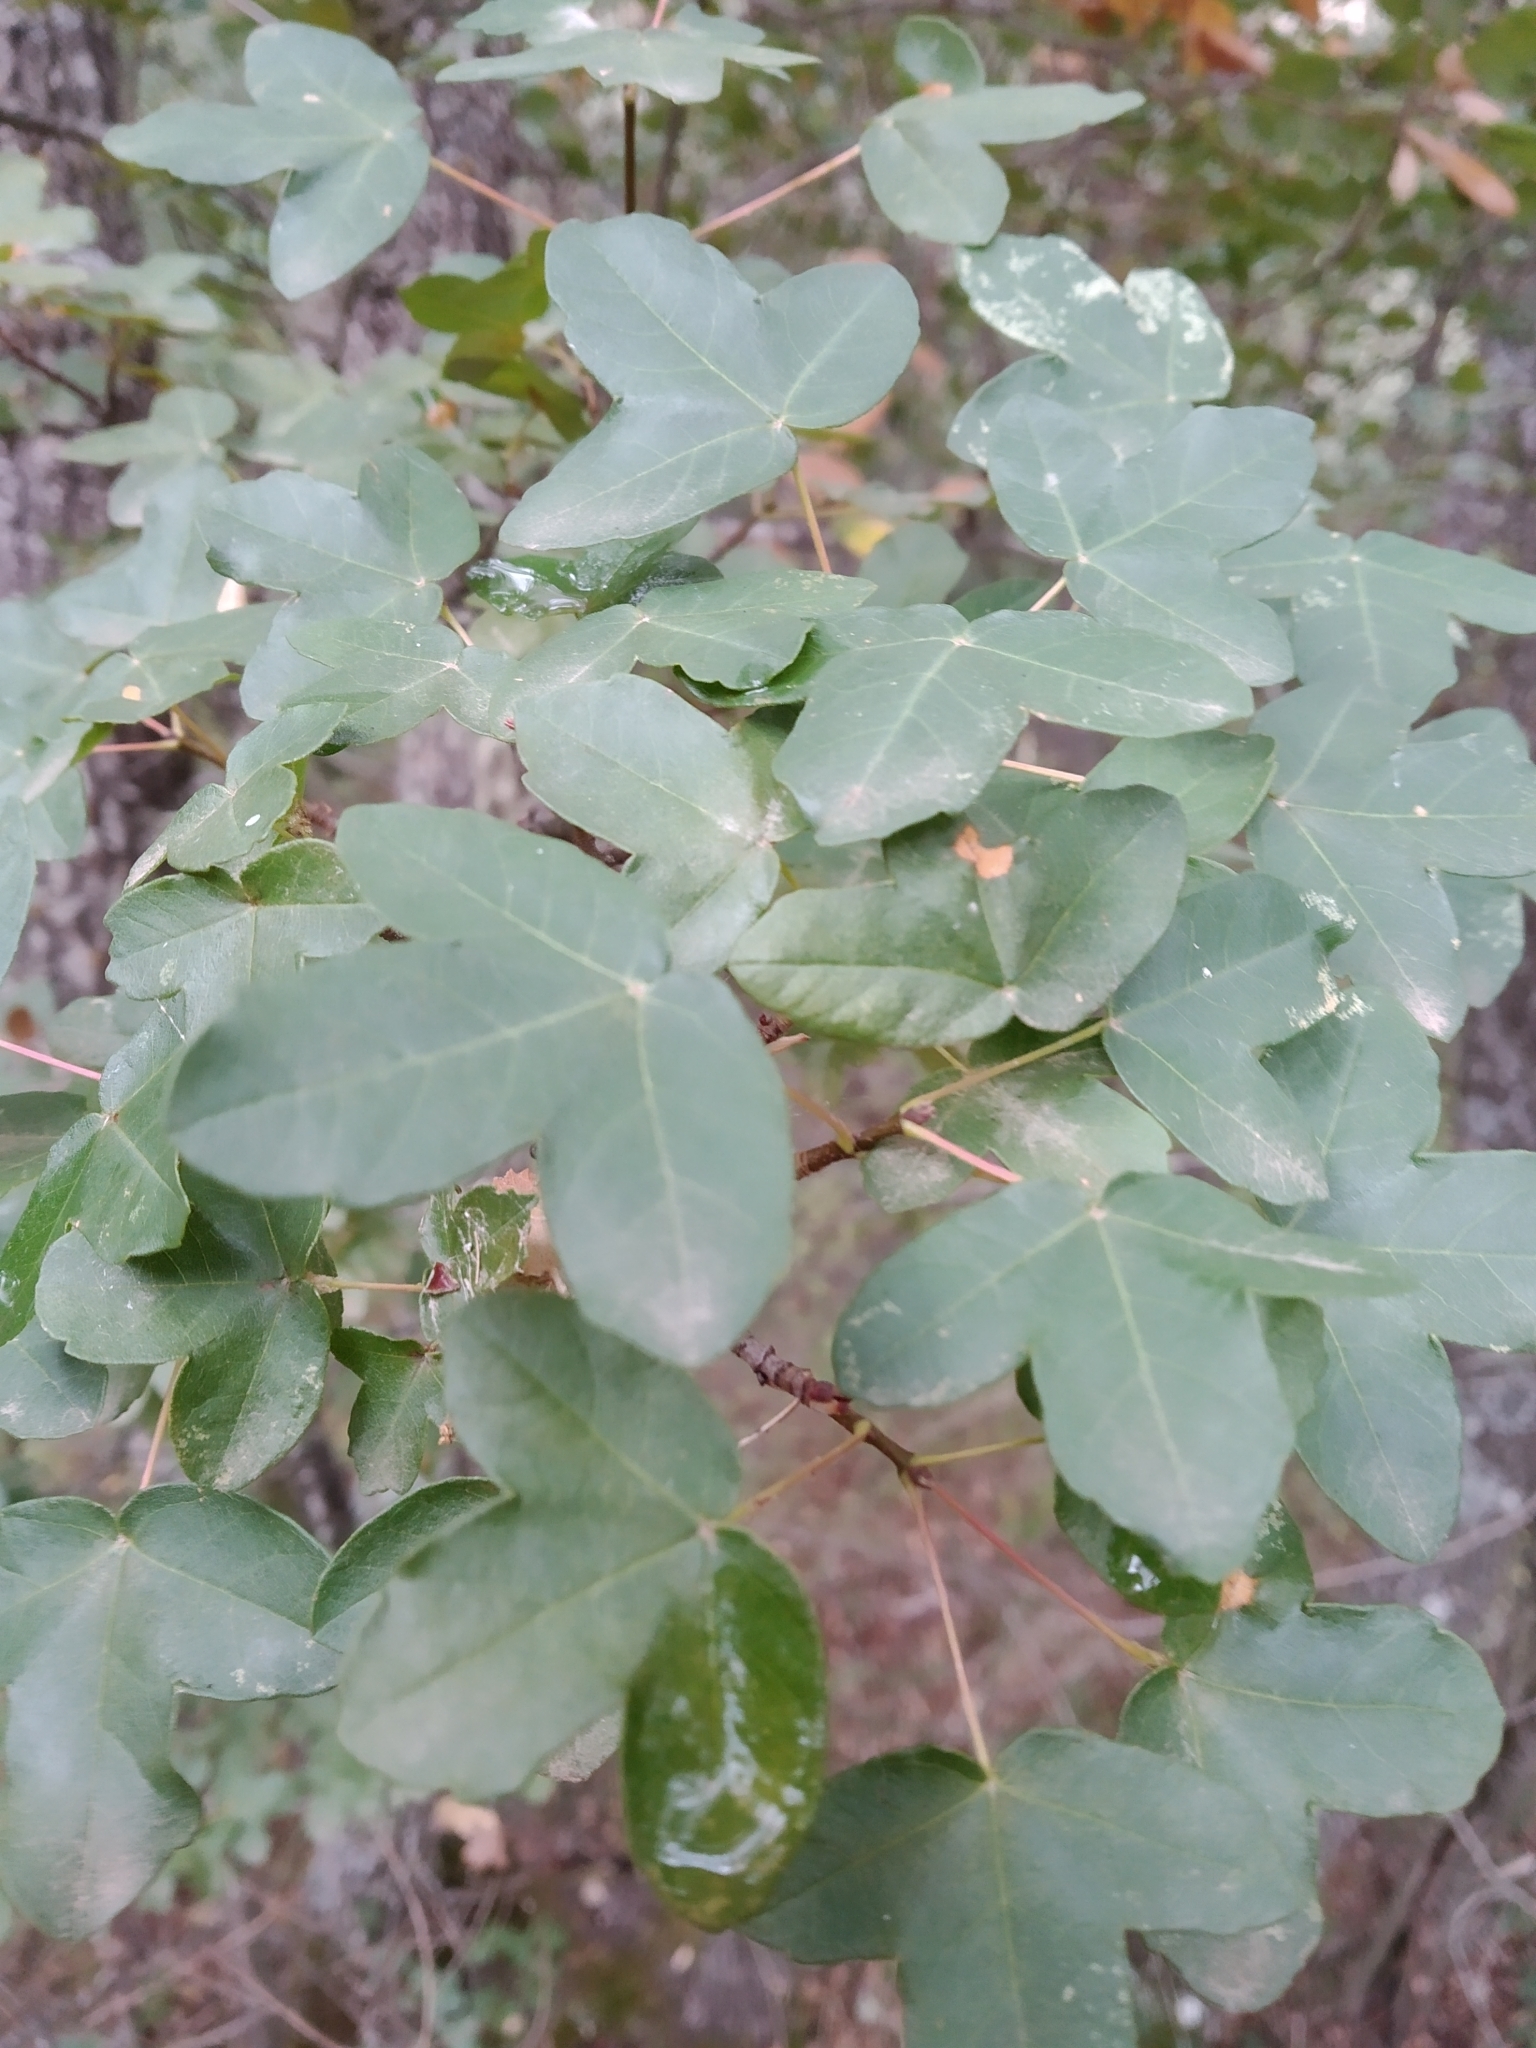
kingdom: Plantae
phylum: Tracheophyta
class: Magnoliopsida
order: Sapindales
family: Sapindaceae
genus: Acer
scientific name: Acer monspessulanum
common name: Montpellier maple
